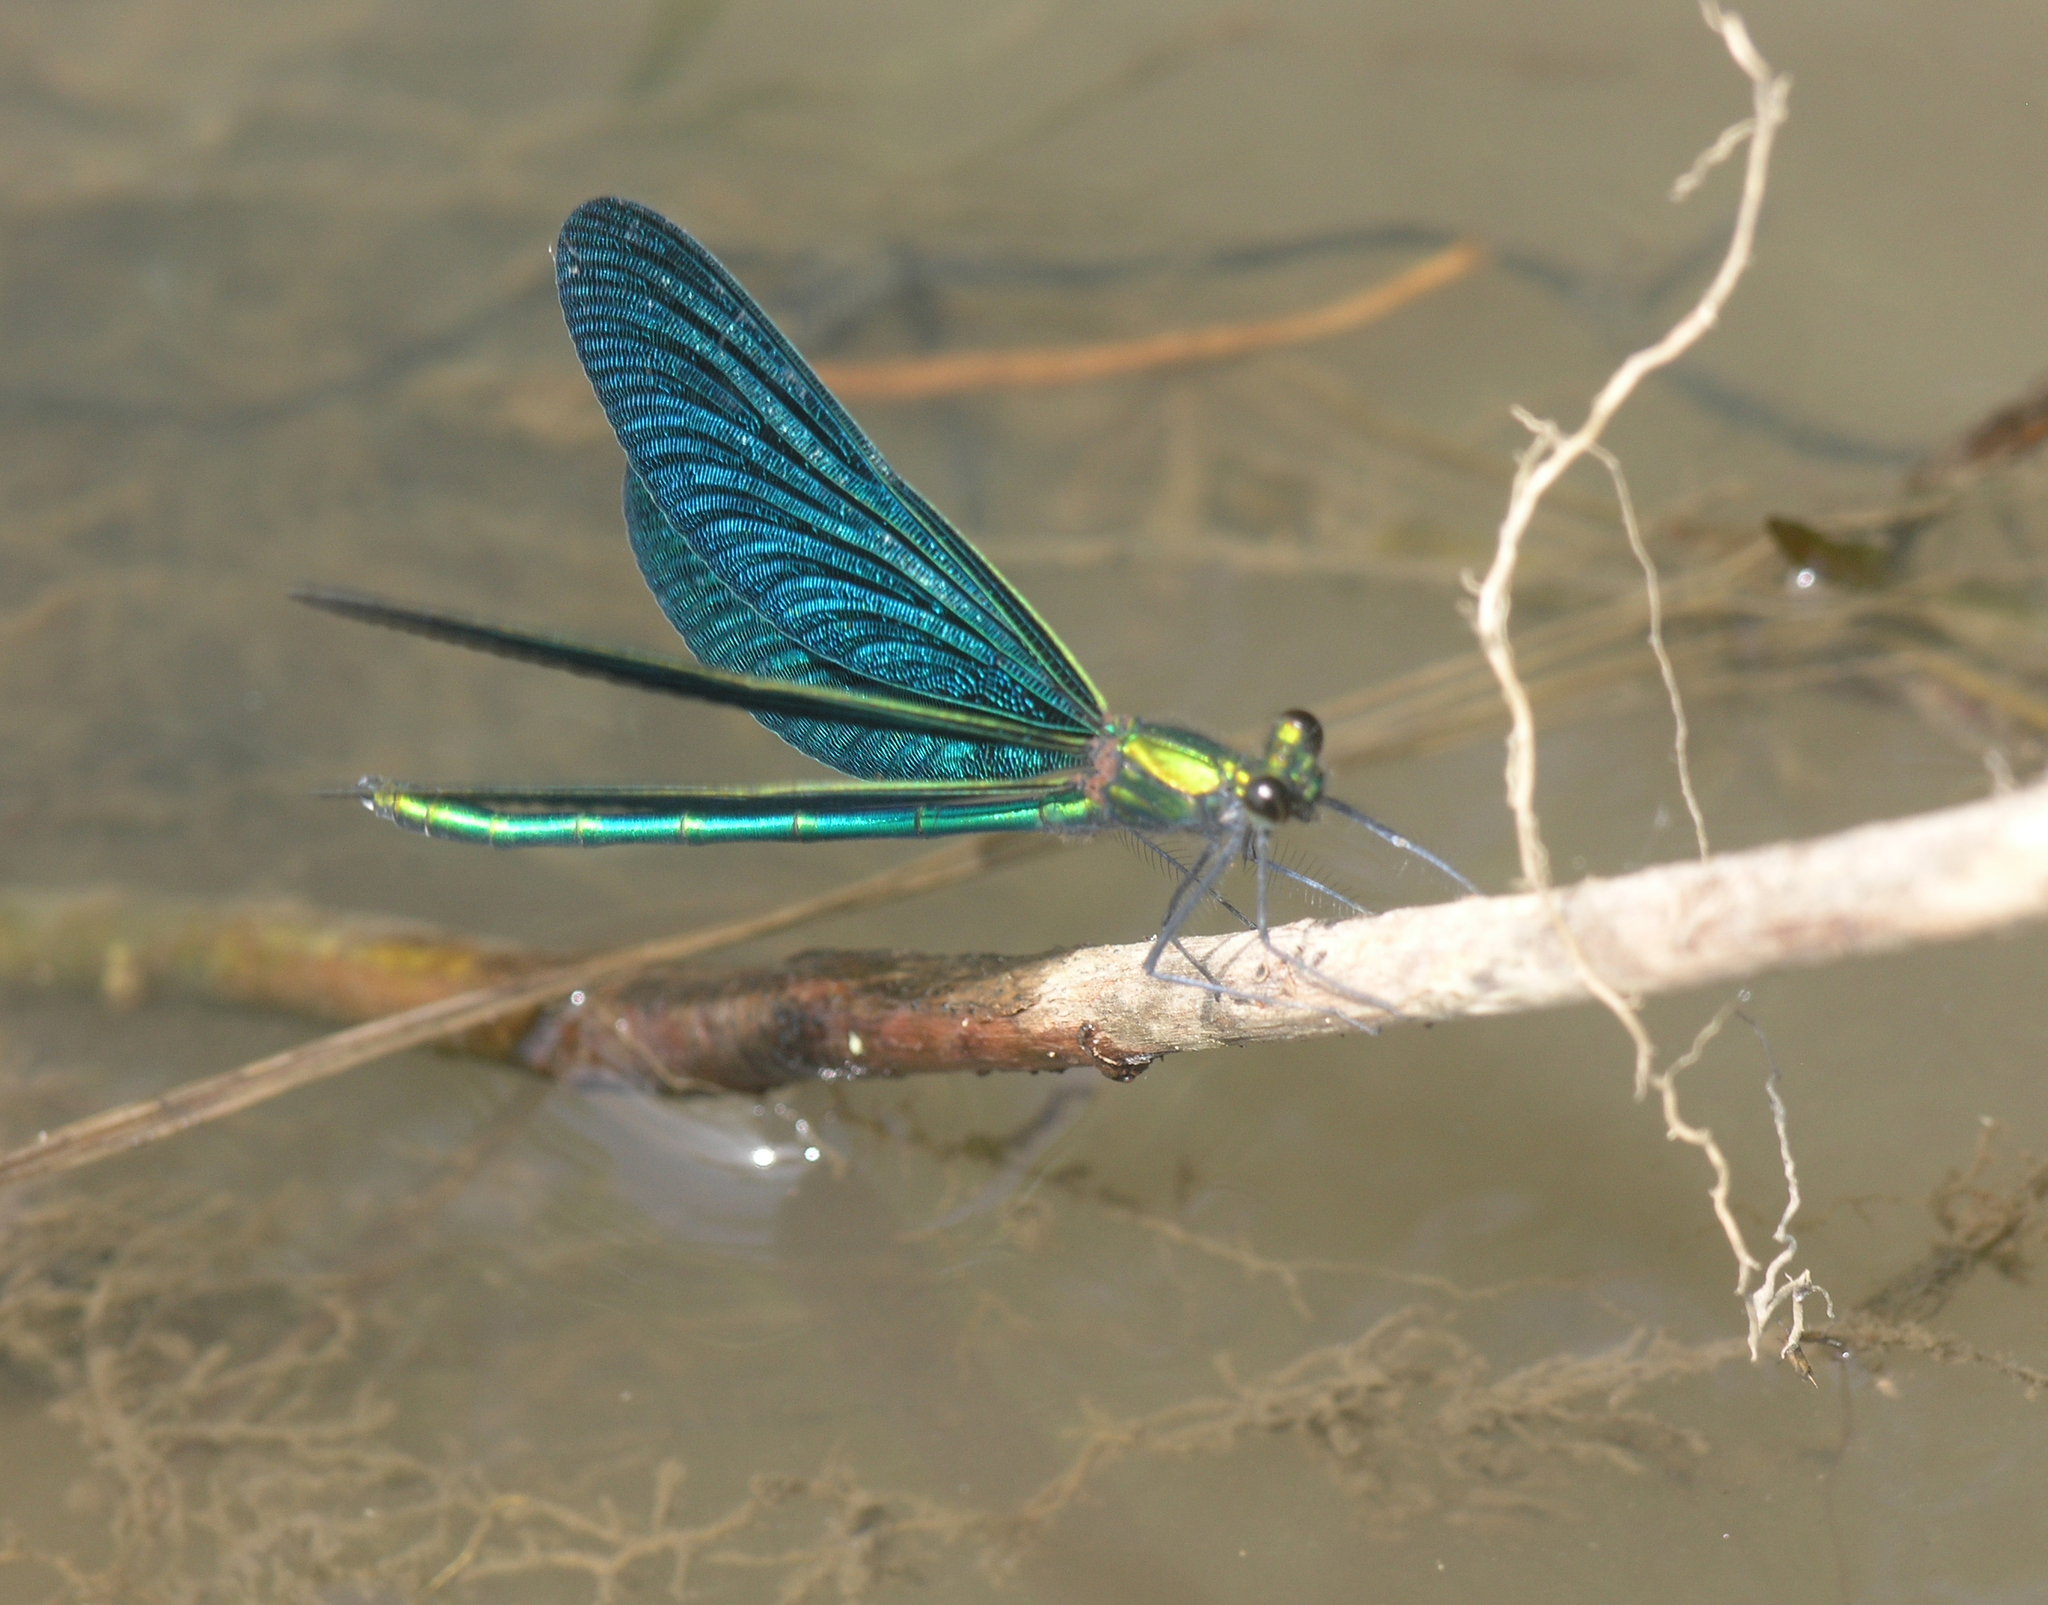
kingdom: Animalia
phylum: Arthropoda
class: Insecta
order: Odonata
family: Calopterygidae
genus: Calopteryx
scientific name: Calopteryx japonica
